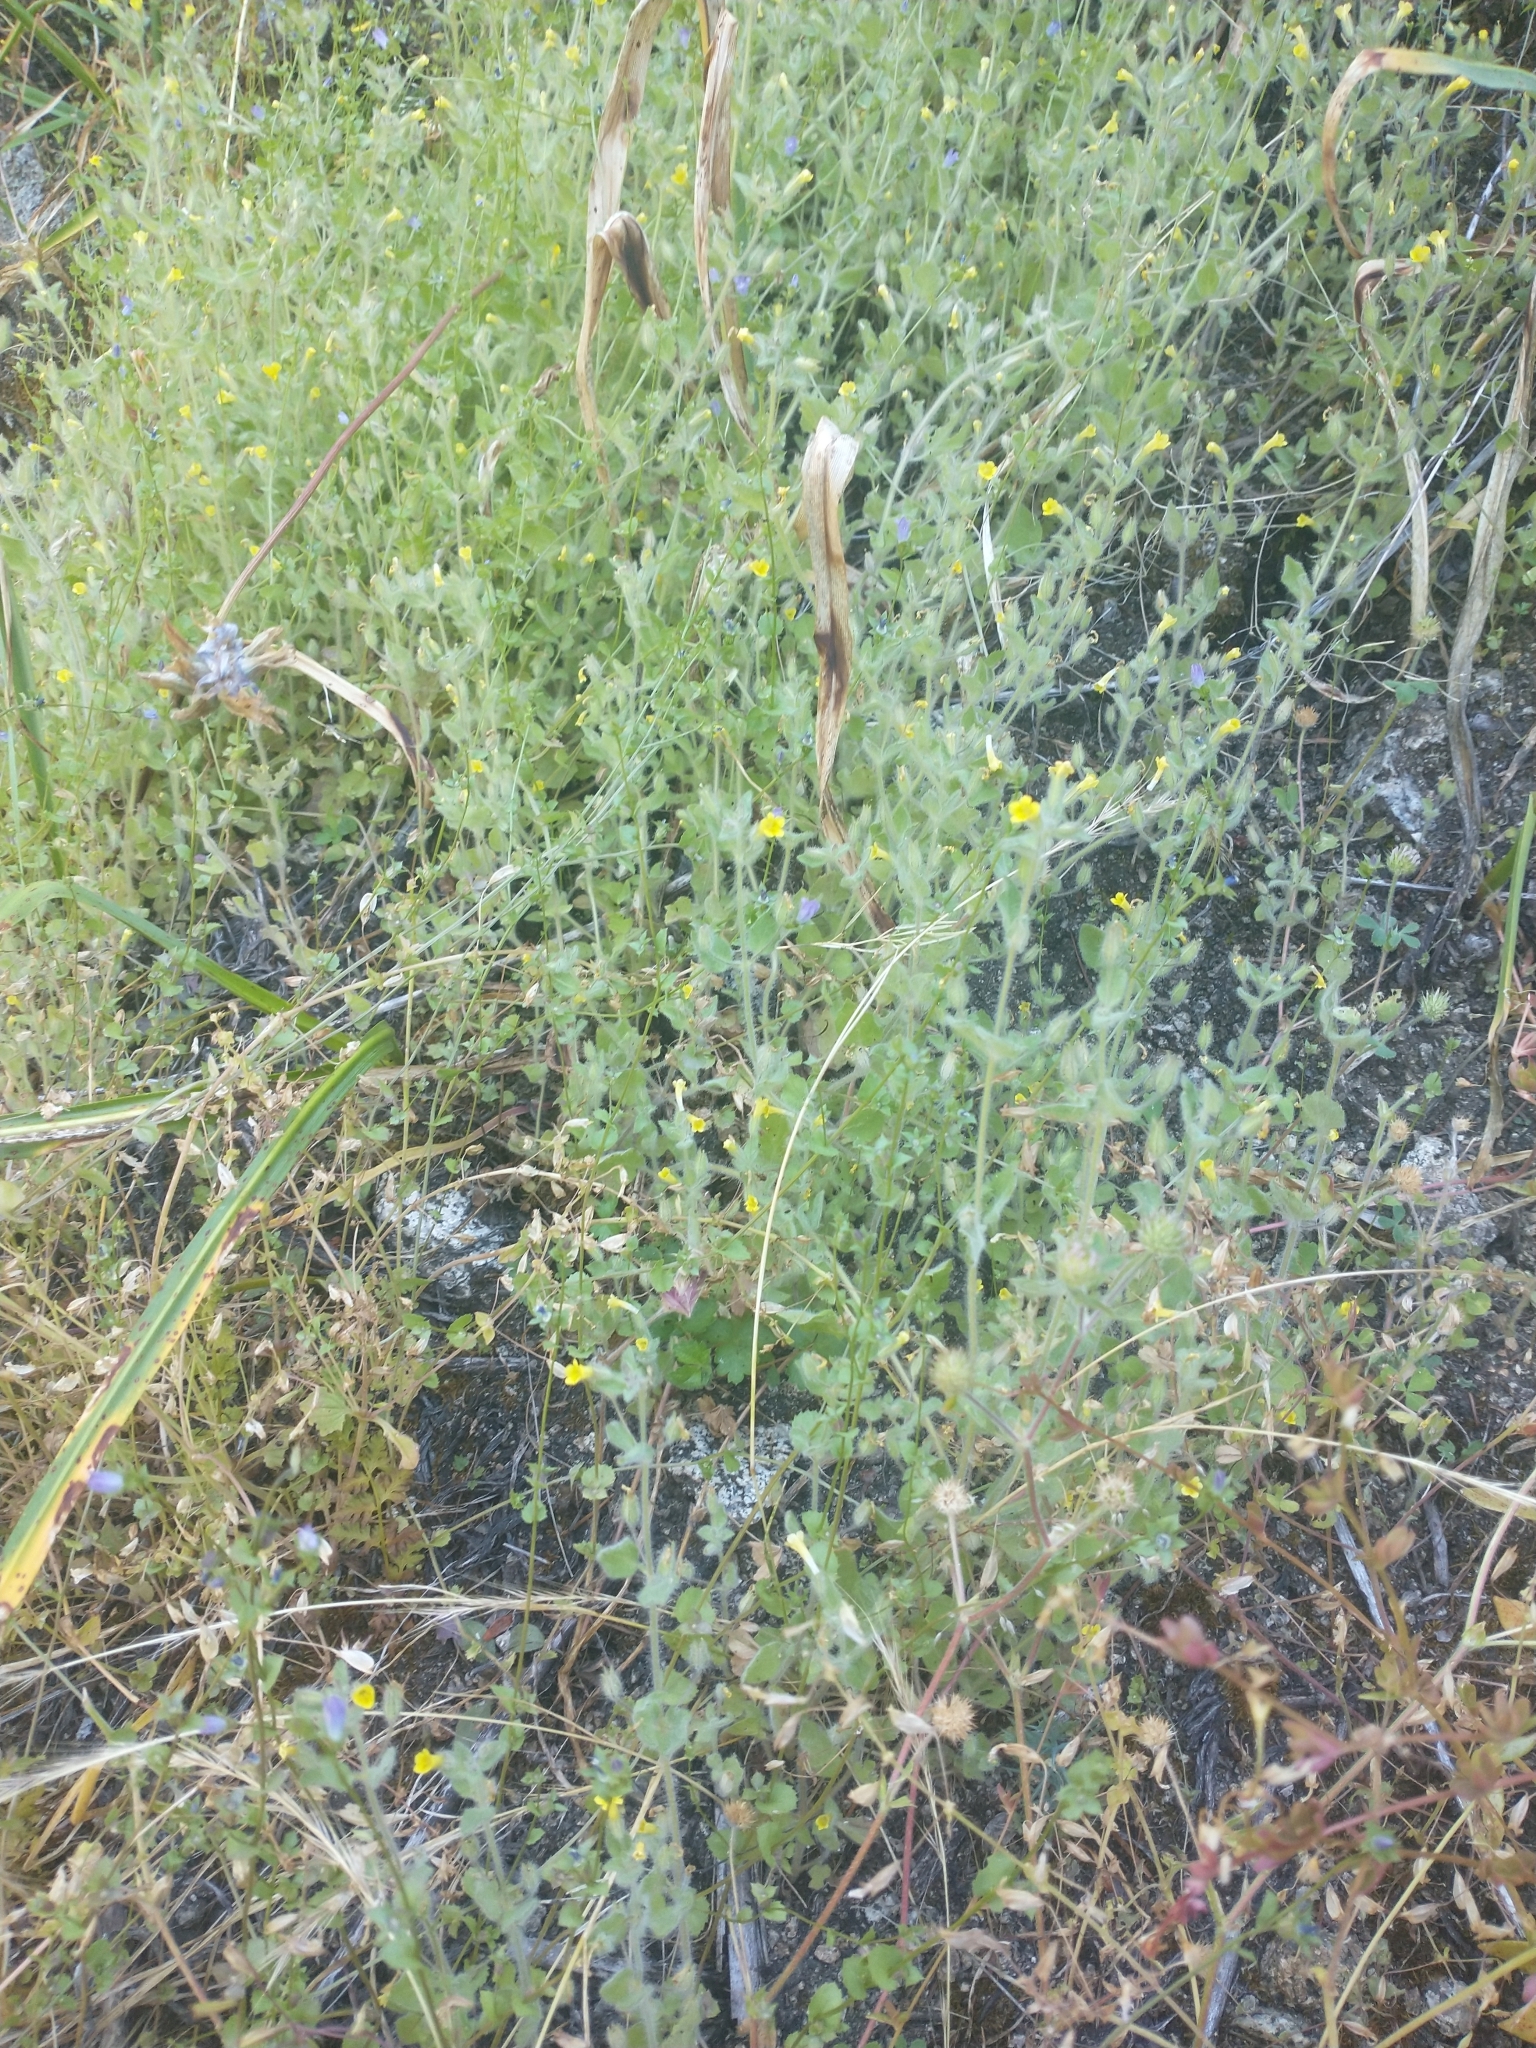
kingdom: Plantae
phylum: Tracheophyta
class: Magnoliopsida
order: Lamiales
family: Phrymaceae
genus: Erythranthe
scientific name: Erythranthe floribunda
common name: Floriferous monkeyflower
